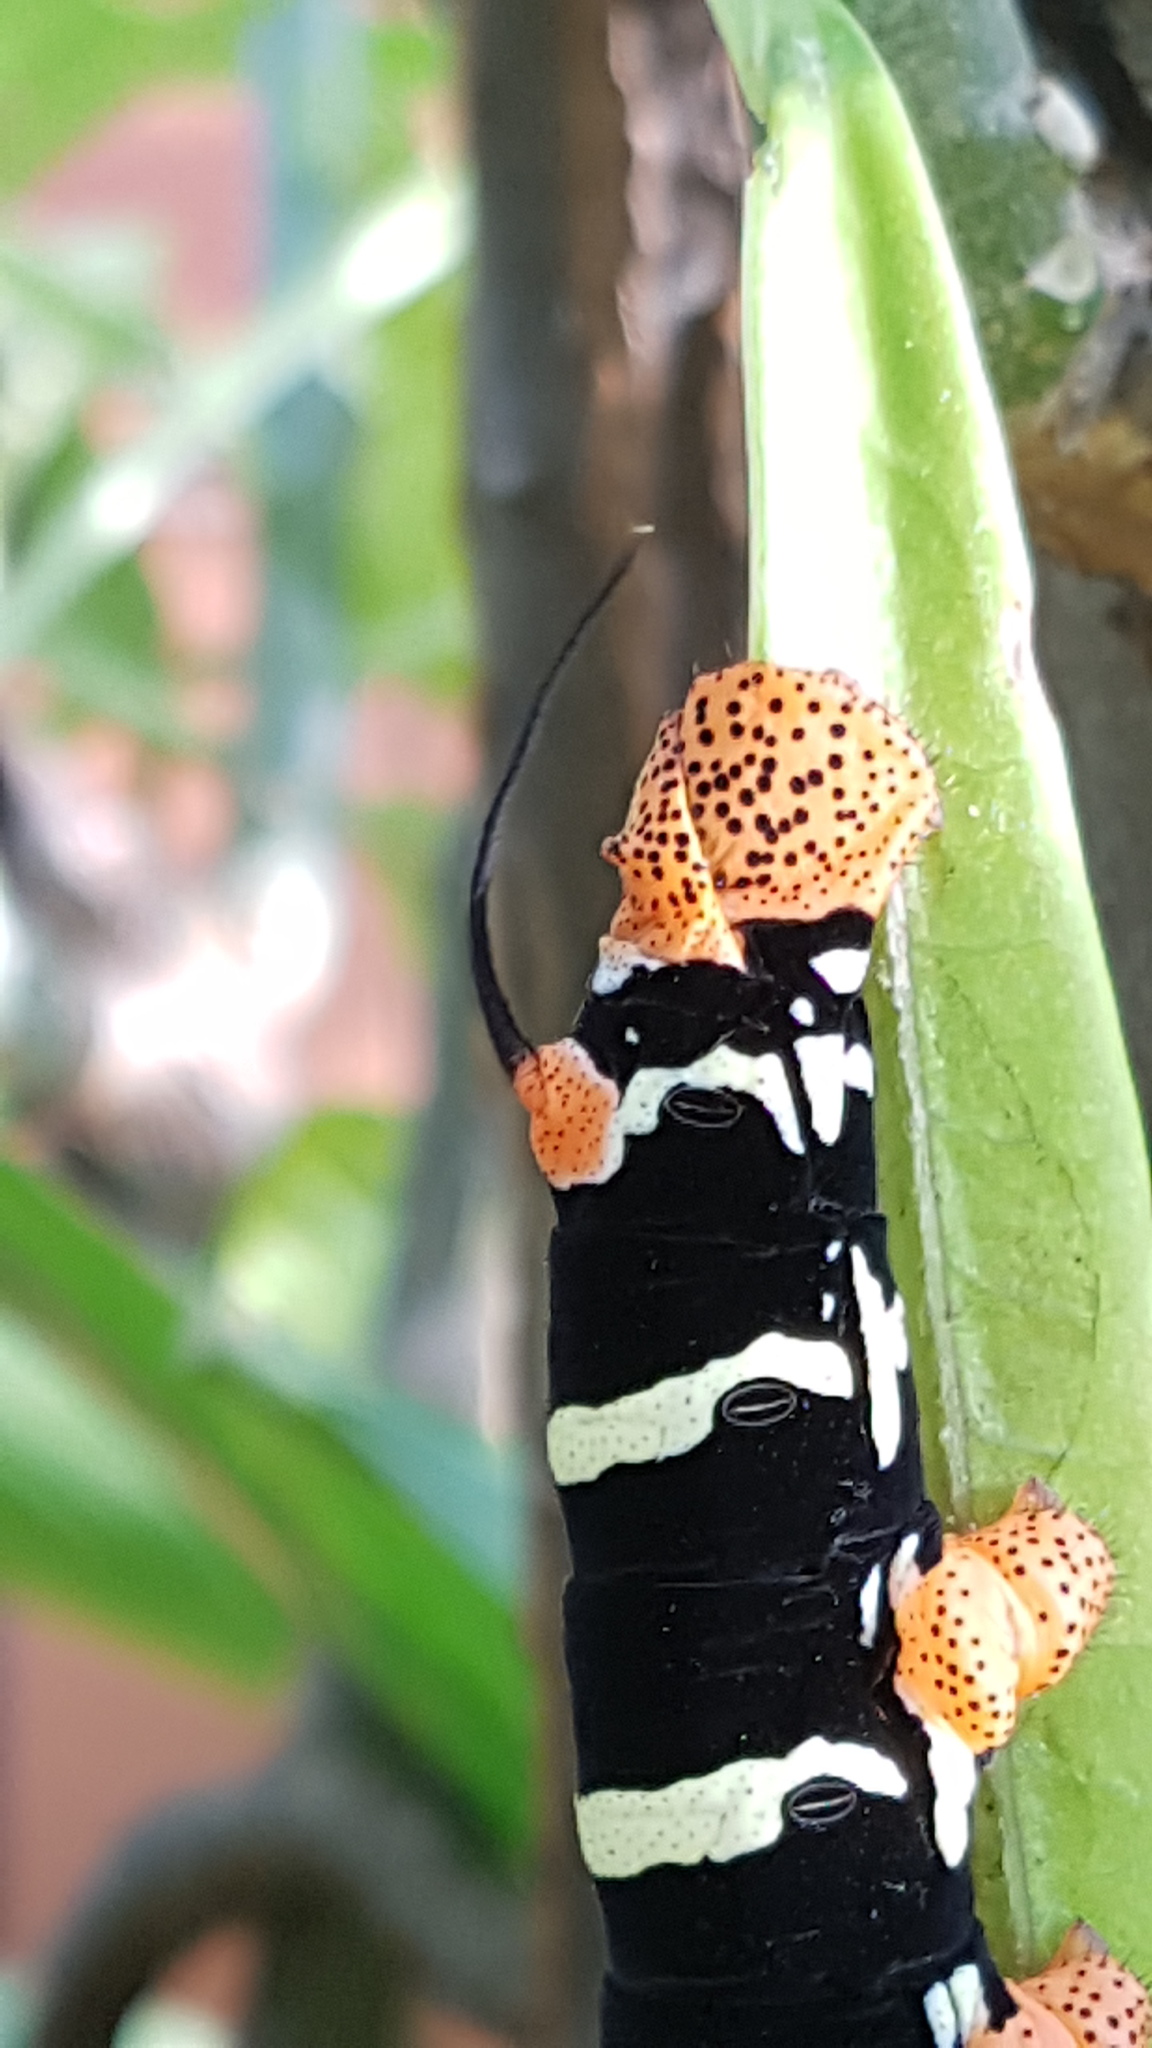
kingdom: Animalia
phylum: Arthropoda
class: Insecta
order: Lepidoptera
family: Sphingidae
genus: Pseudosphinx
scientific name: Pseudosphinx tetrio
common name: Tetrio sphinx
